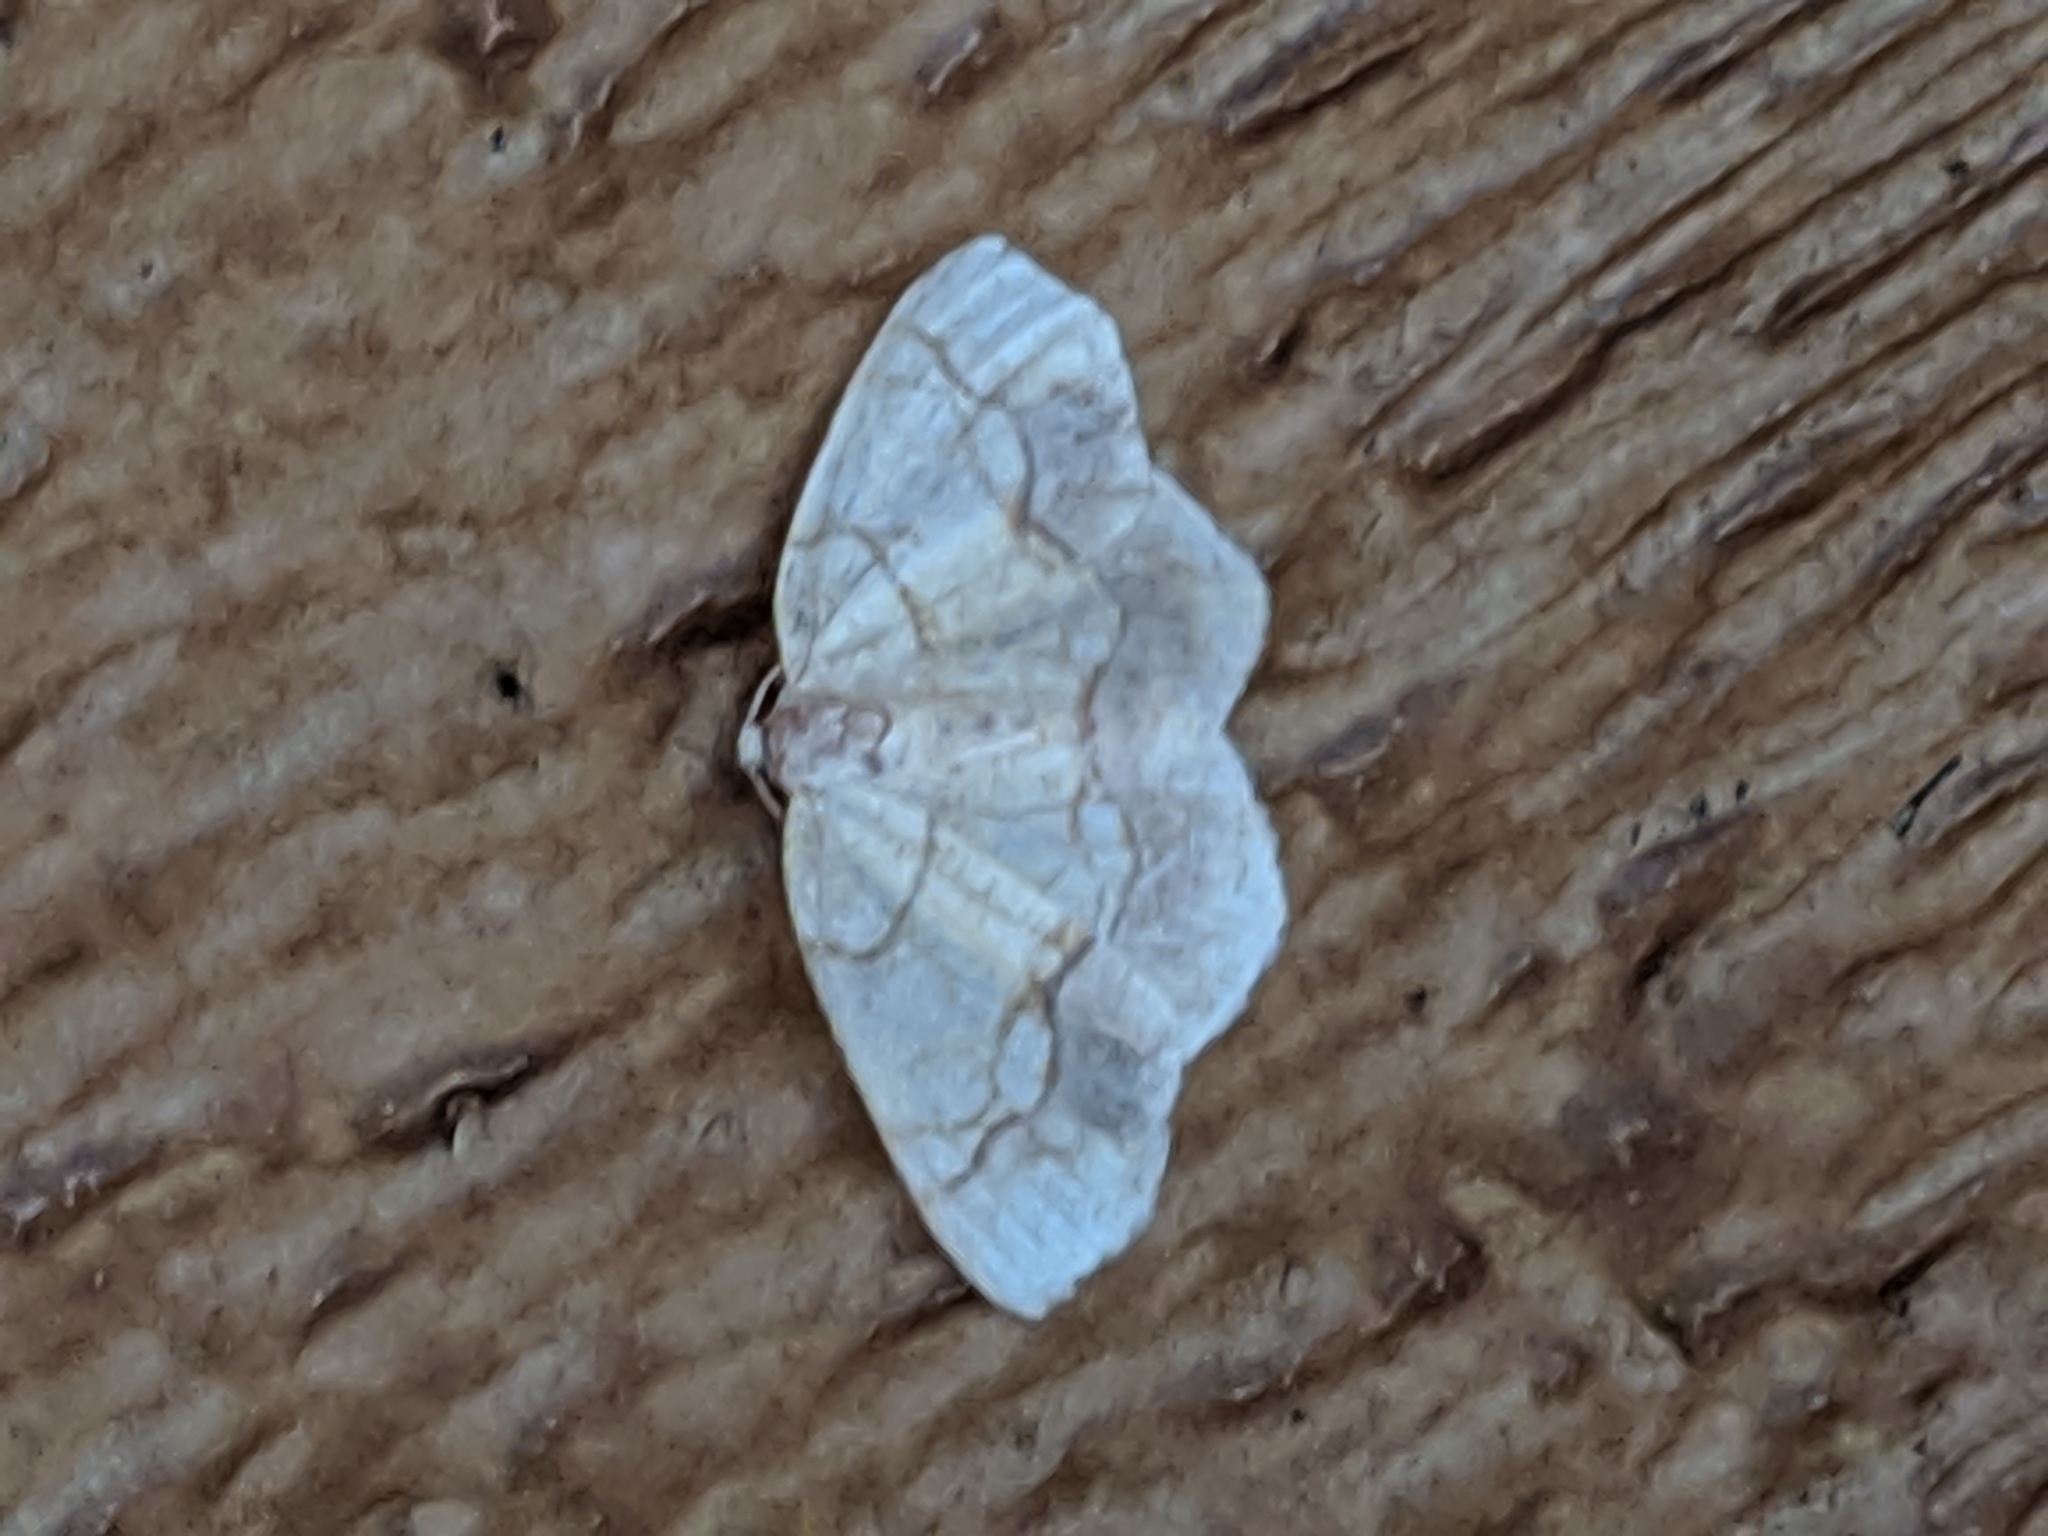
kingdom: Animalia
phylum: Arthropoda
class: Insecta
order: Lepidoptera
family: Geometridae
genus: Nematocampa
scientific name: Nematocampa resistaria
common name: Horned spanworm moth
